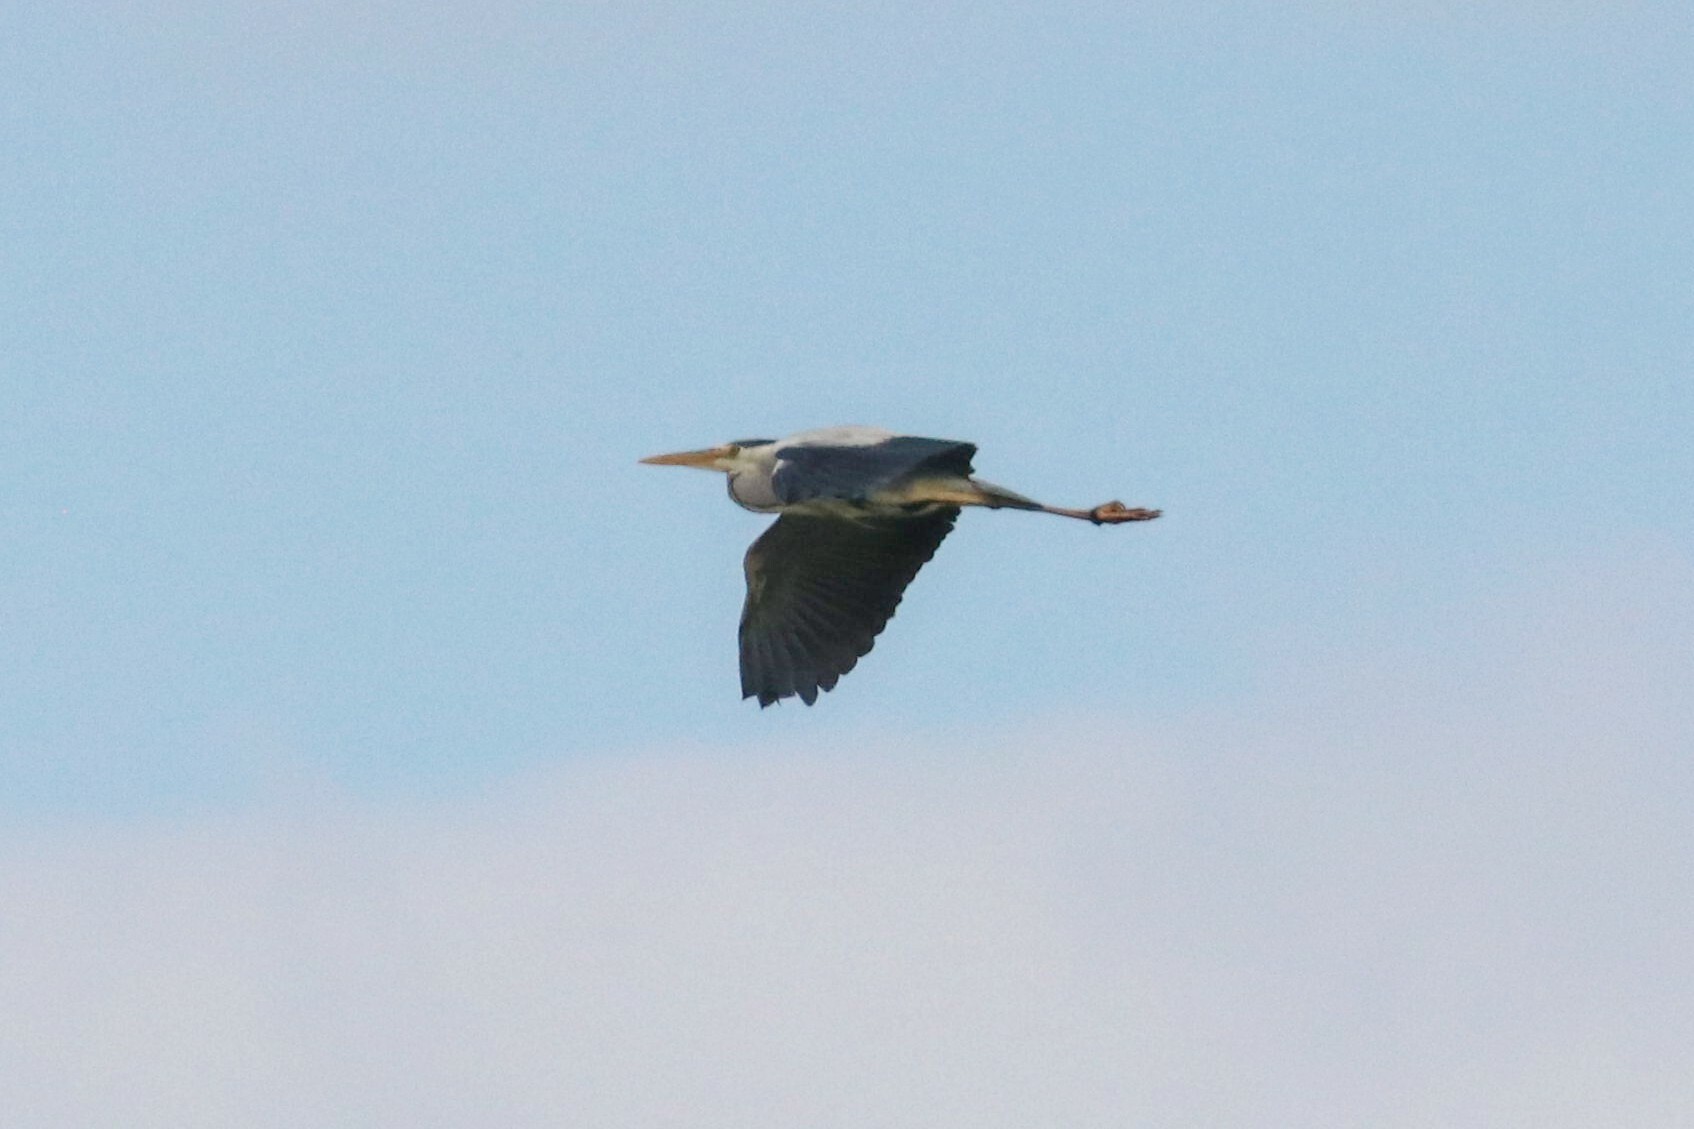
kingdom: Animalia
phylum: Chordata
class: Aves
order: Pelecaniformes
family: Ardeidae
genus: Ardea
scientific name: Ardea cinerea
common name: Grey heron
